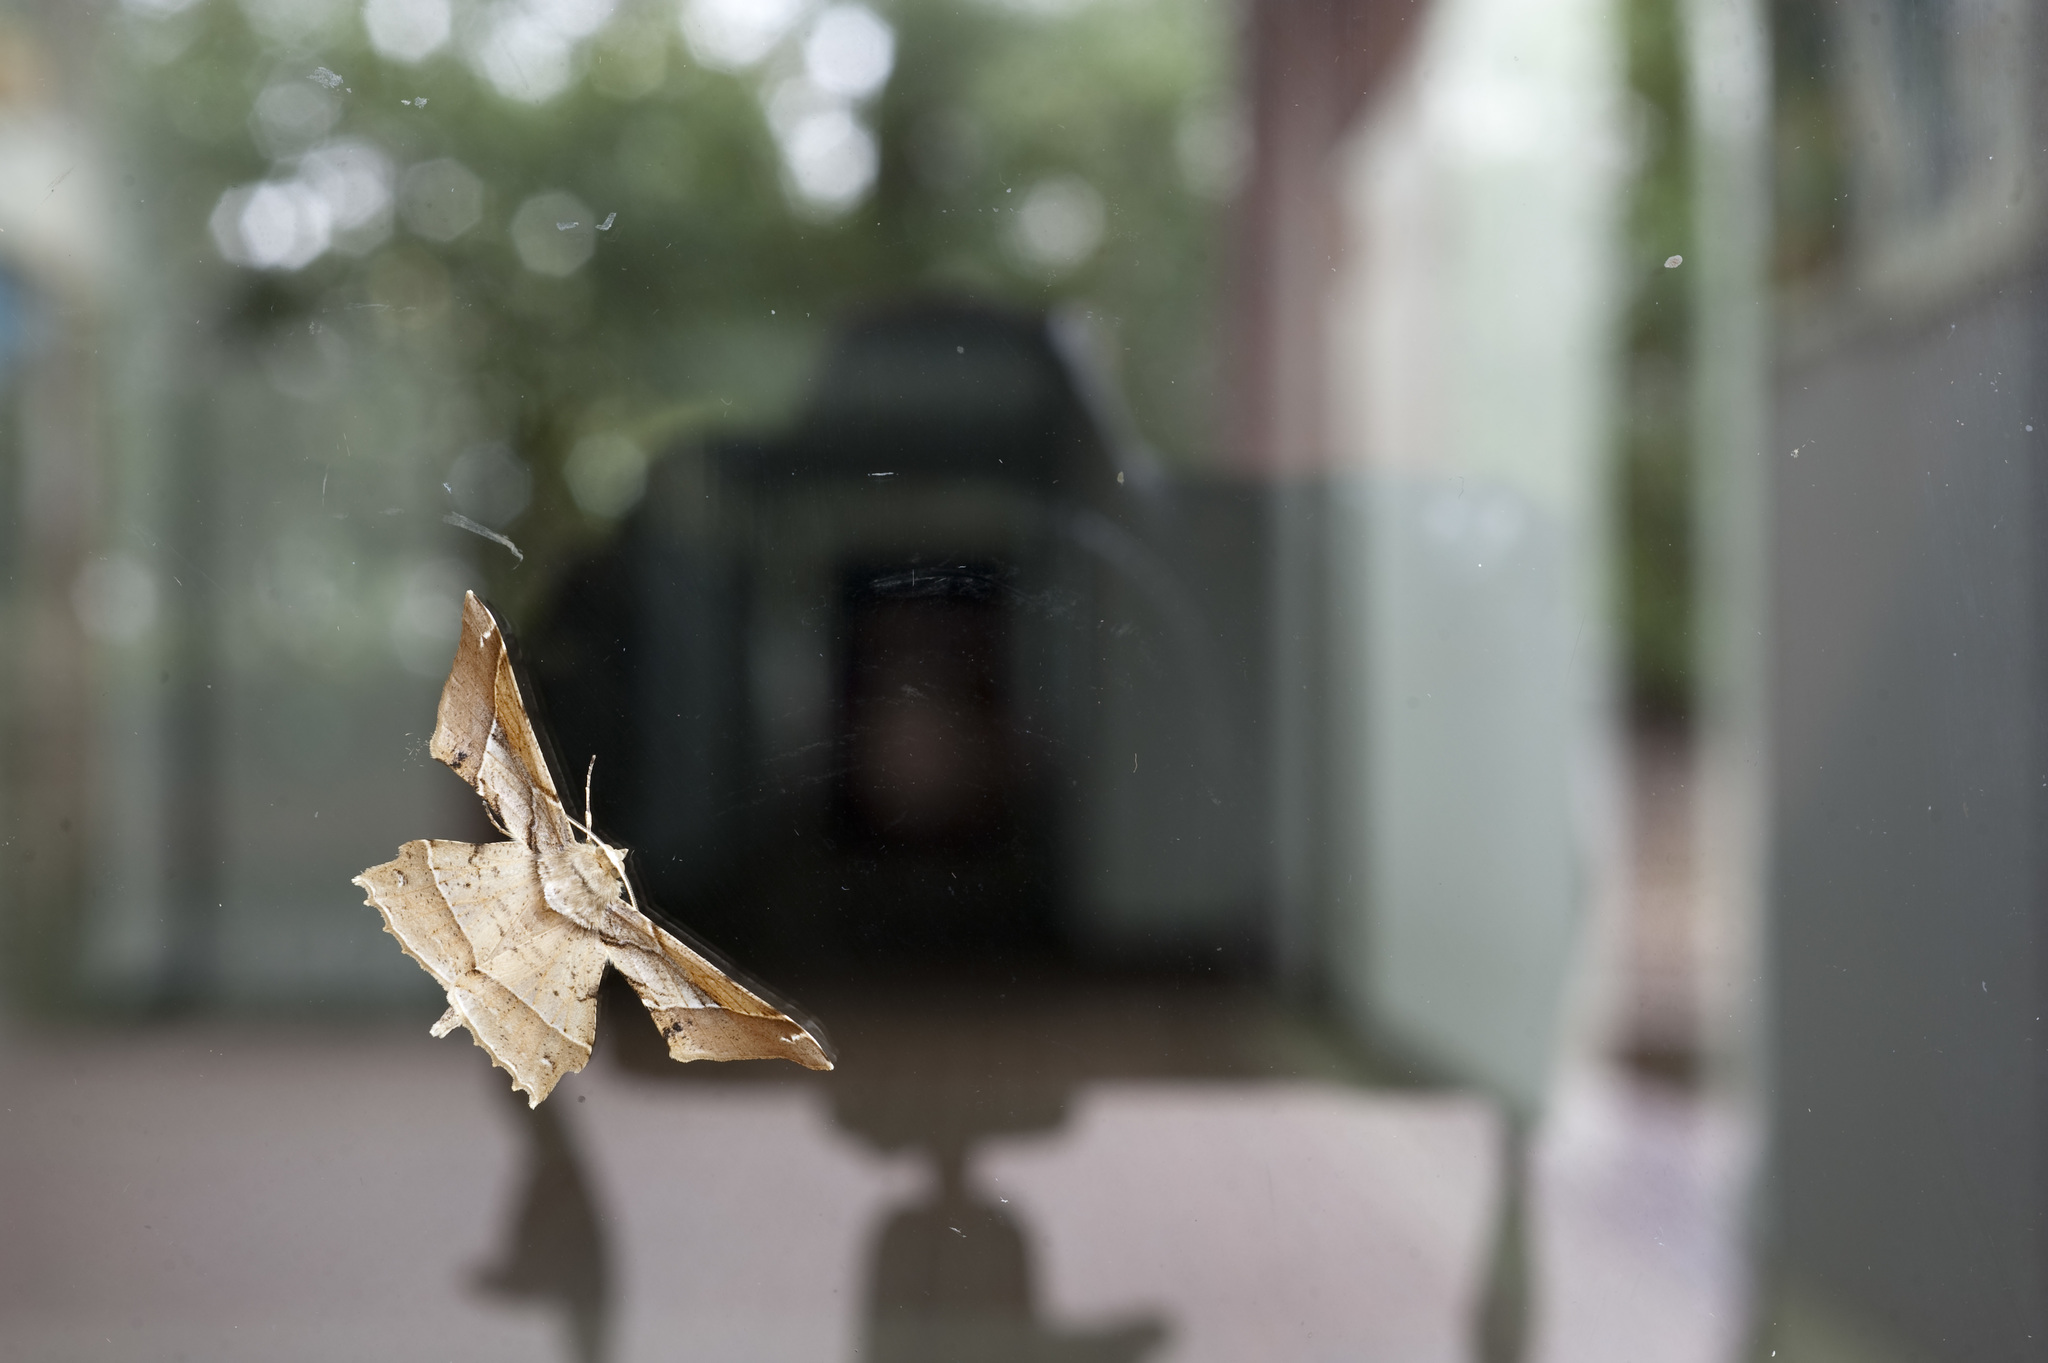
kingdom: Animalia
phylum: Arthropoda
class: Insecta
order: Lepidoptera
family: Geometridae
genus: Krananda
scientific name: Krananda latimarginaria
